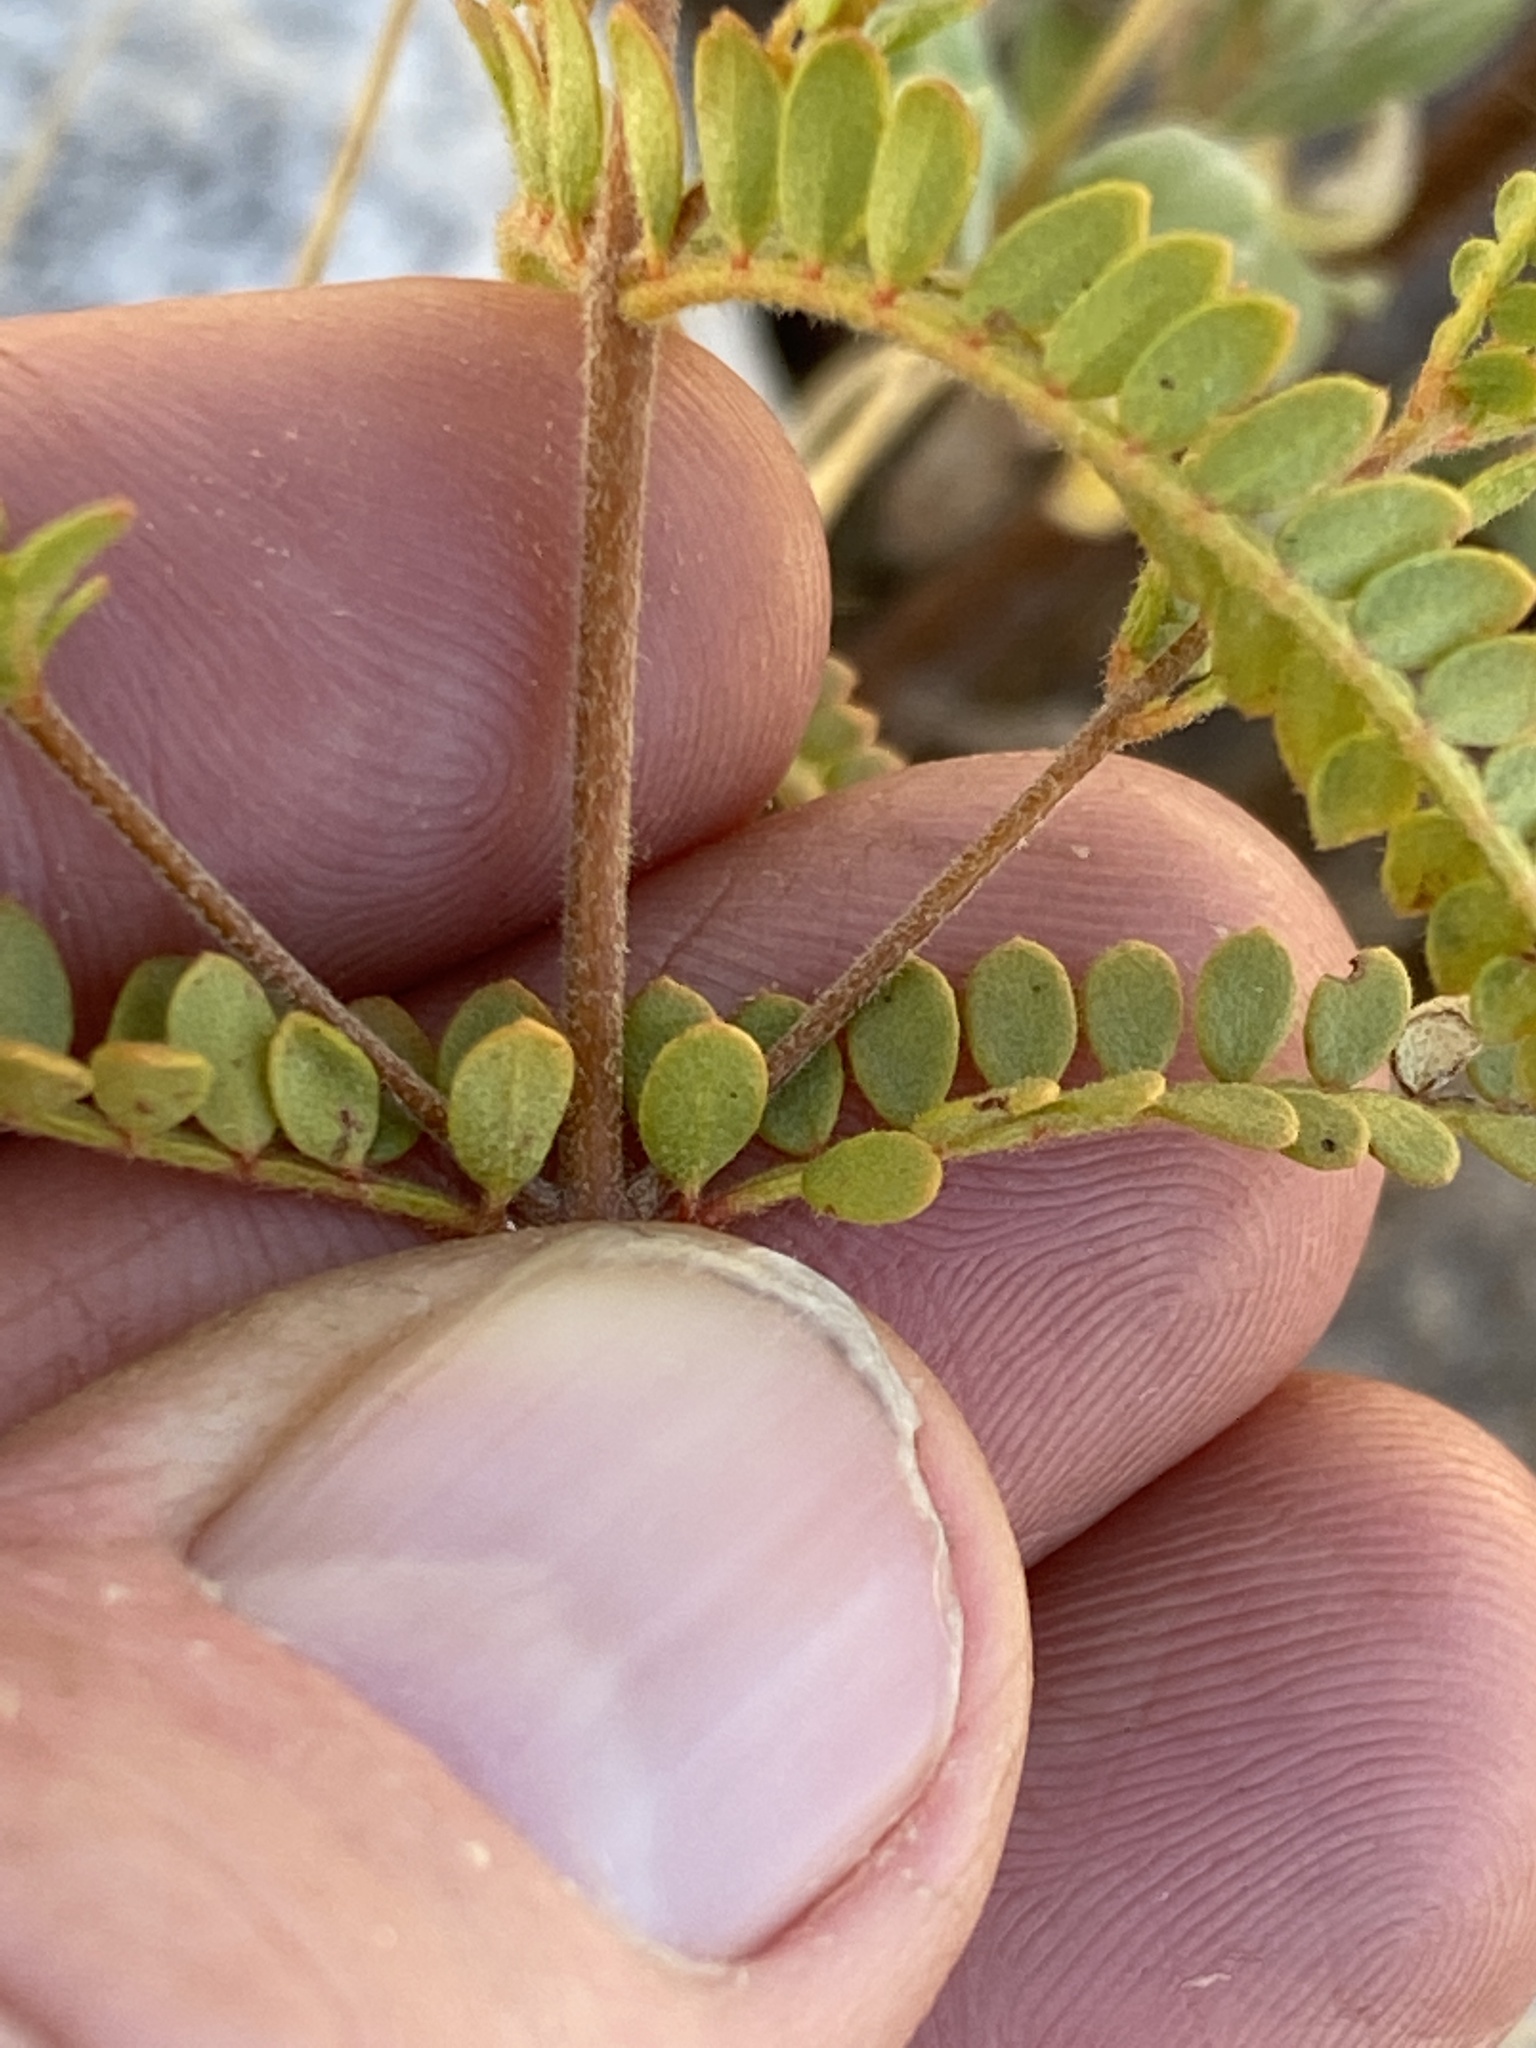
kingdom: Plantae
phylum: Tracheophyta
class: Magnoliopsida
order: Sapindales
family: Rutaceae
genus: Boronia
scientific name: Boronia filicifolia
